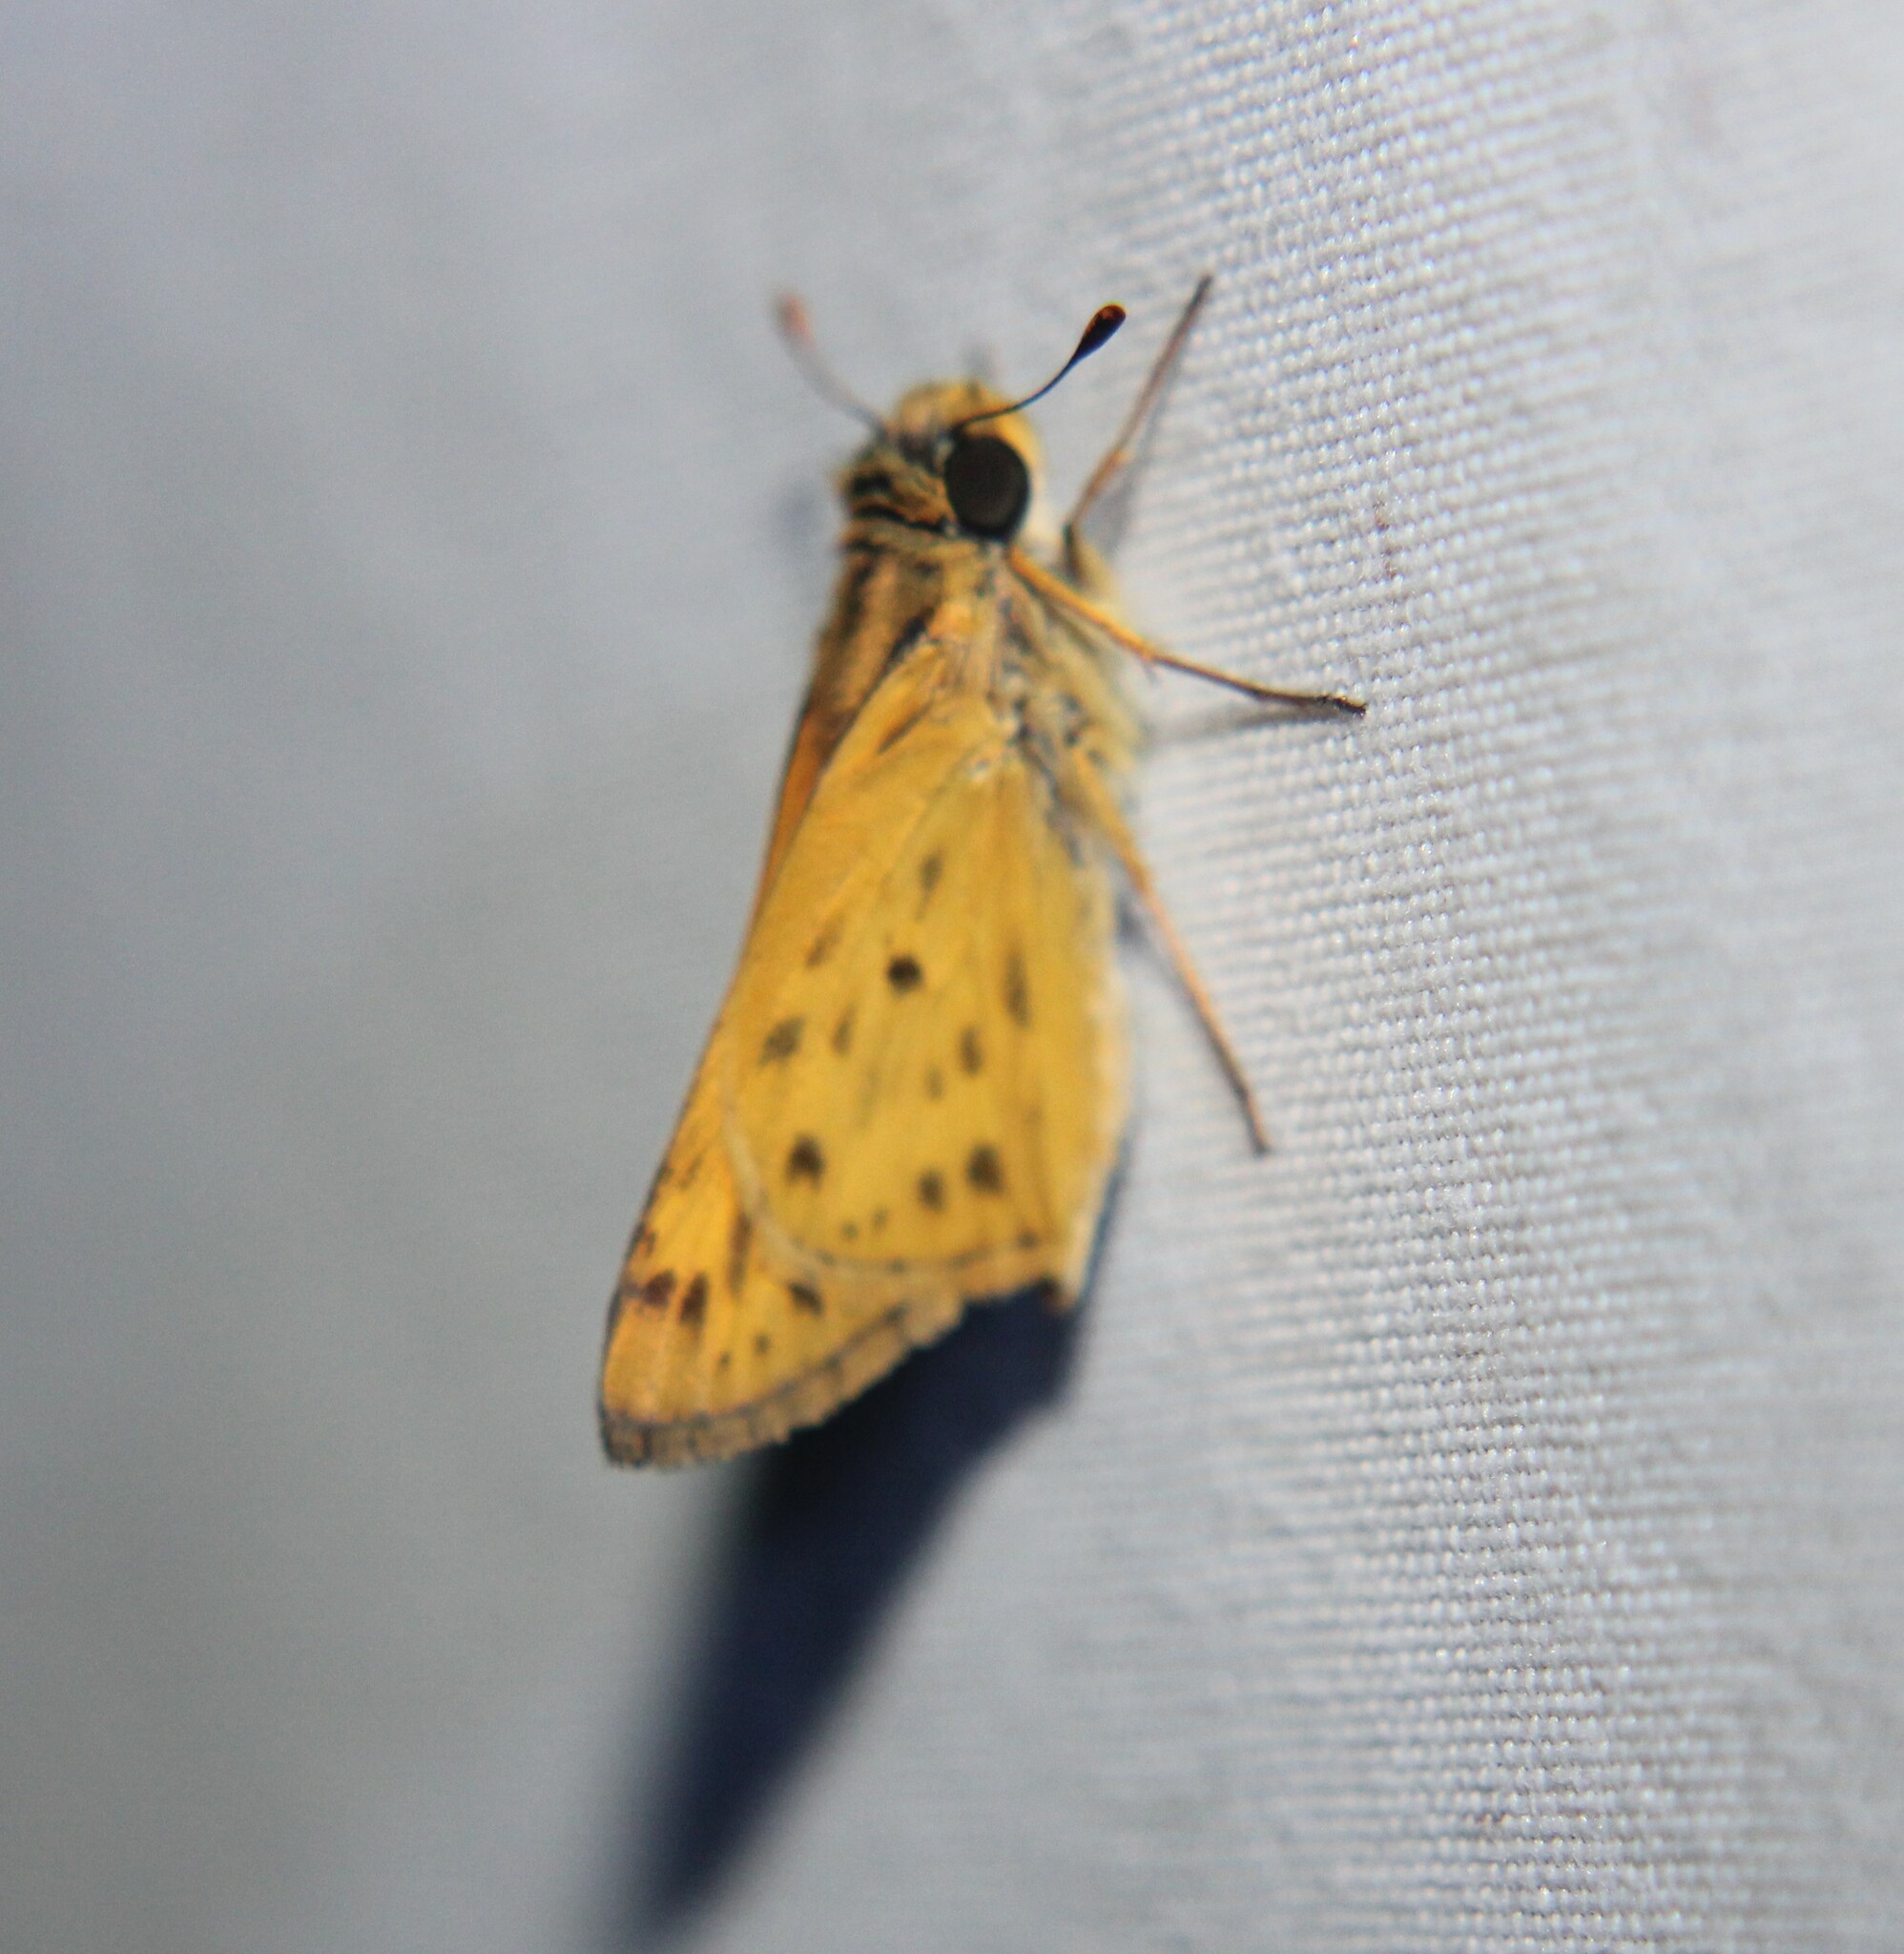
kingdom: Animalia
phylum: Arthropoda
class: Insecta
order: Lepidoptera
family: Hesperiidae
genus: Hylephila
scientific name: Hylephila phyleus
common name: Fiery skipper
